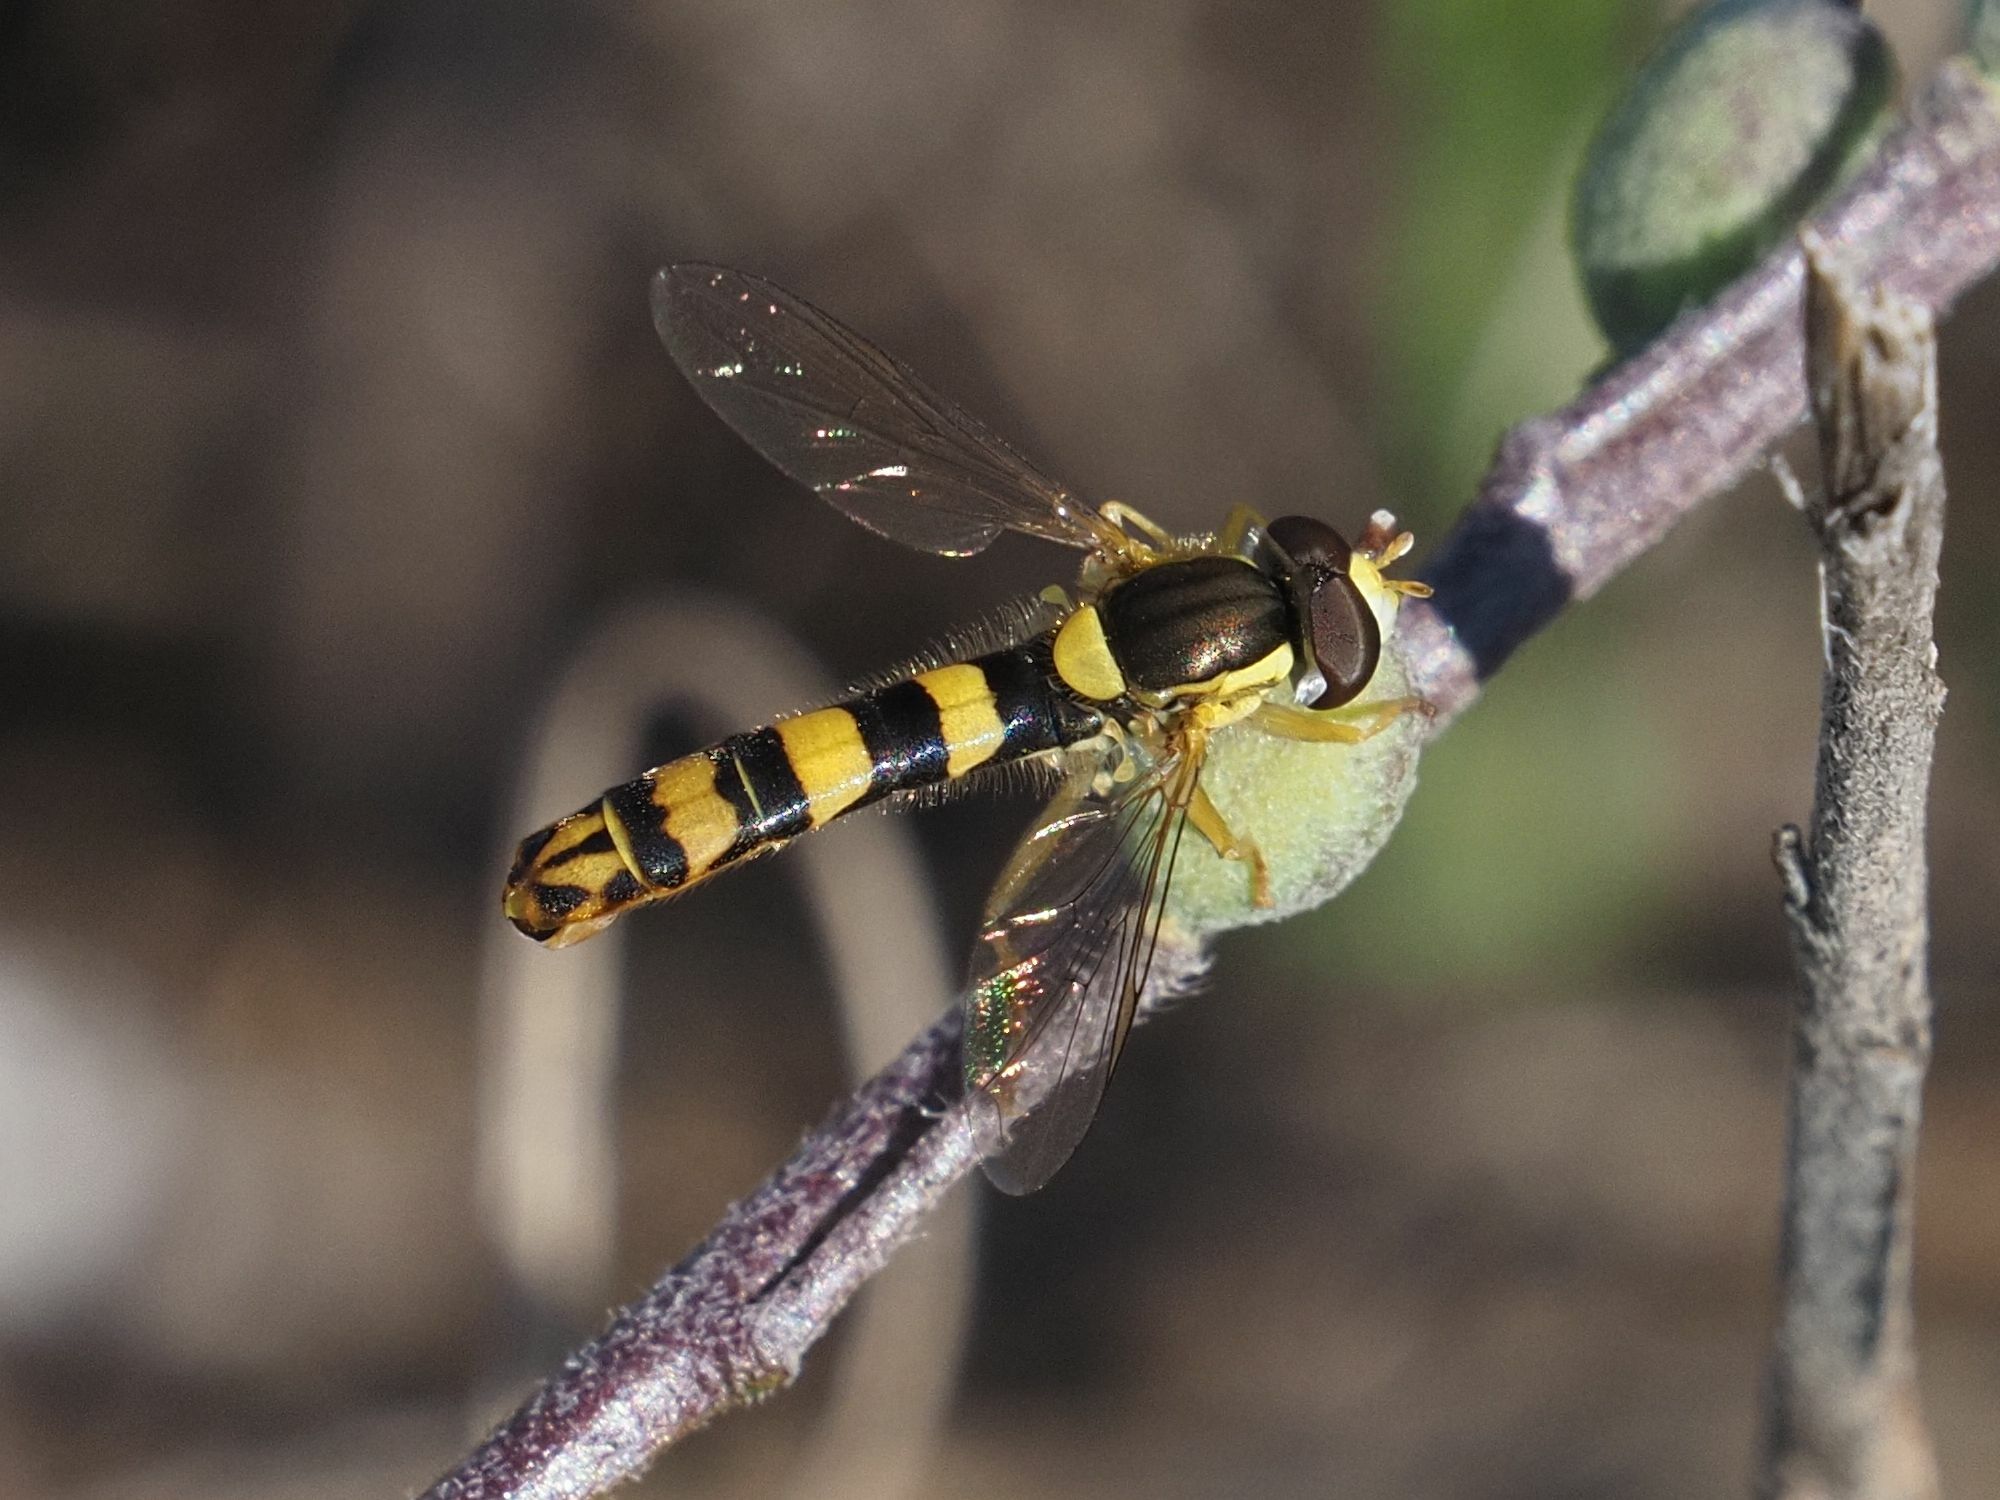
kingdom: Animalia
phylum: Arthropoda
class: Insecta
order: Diptera
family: Syrphidae
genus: Sphaerophoria
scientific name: Sphaerophoria scripta
